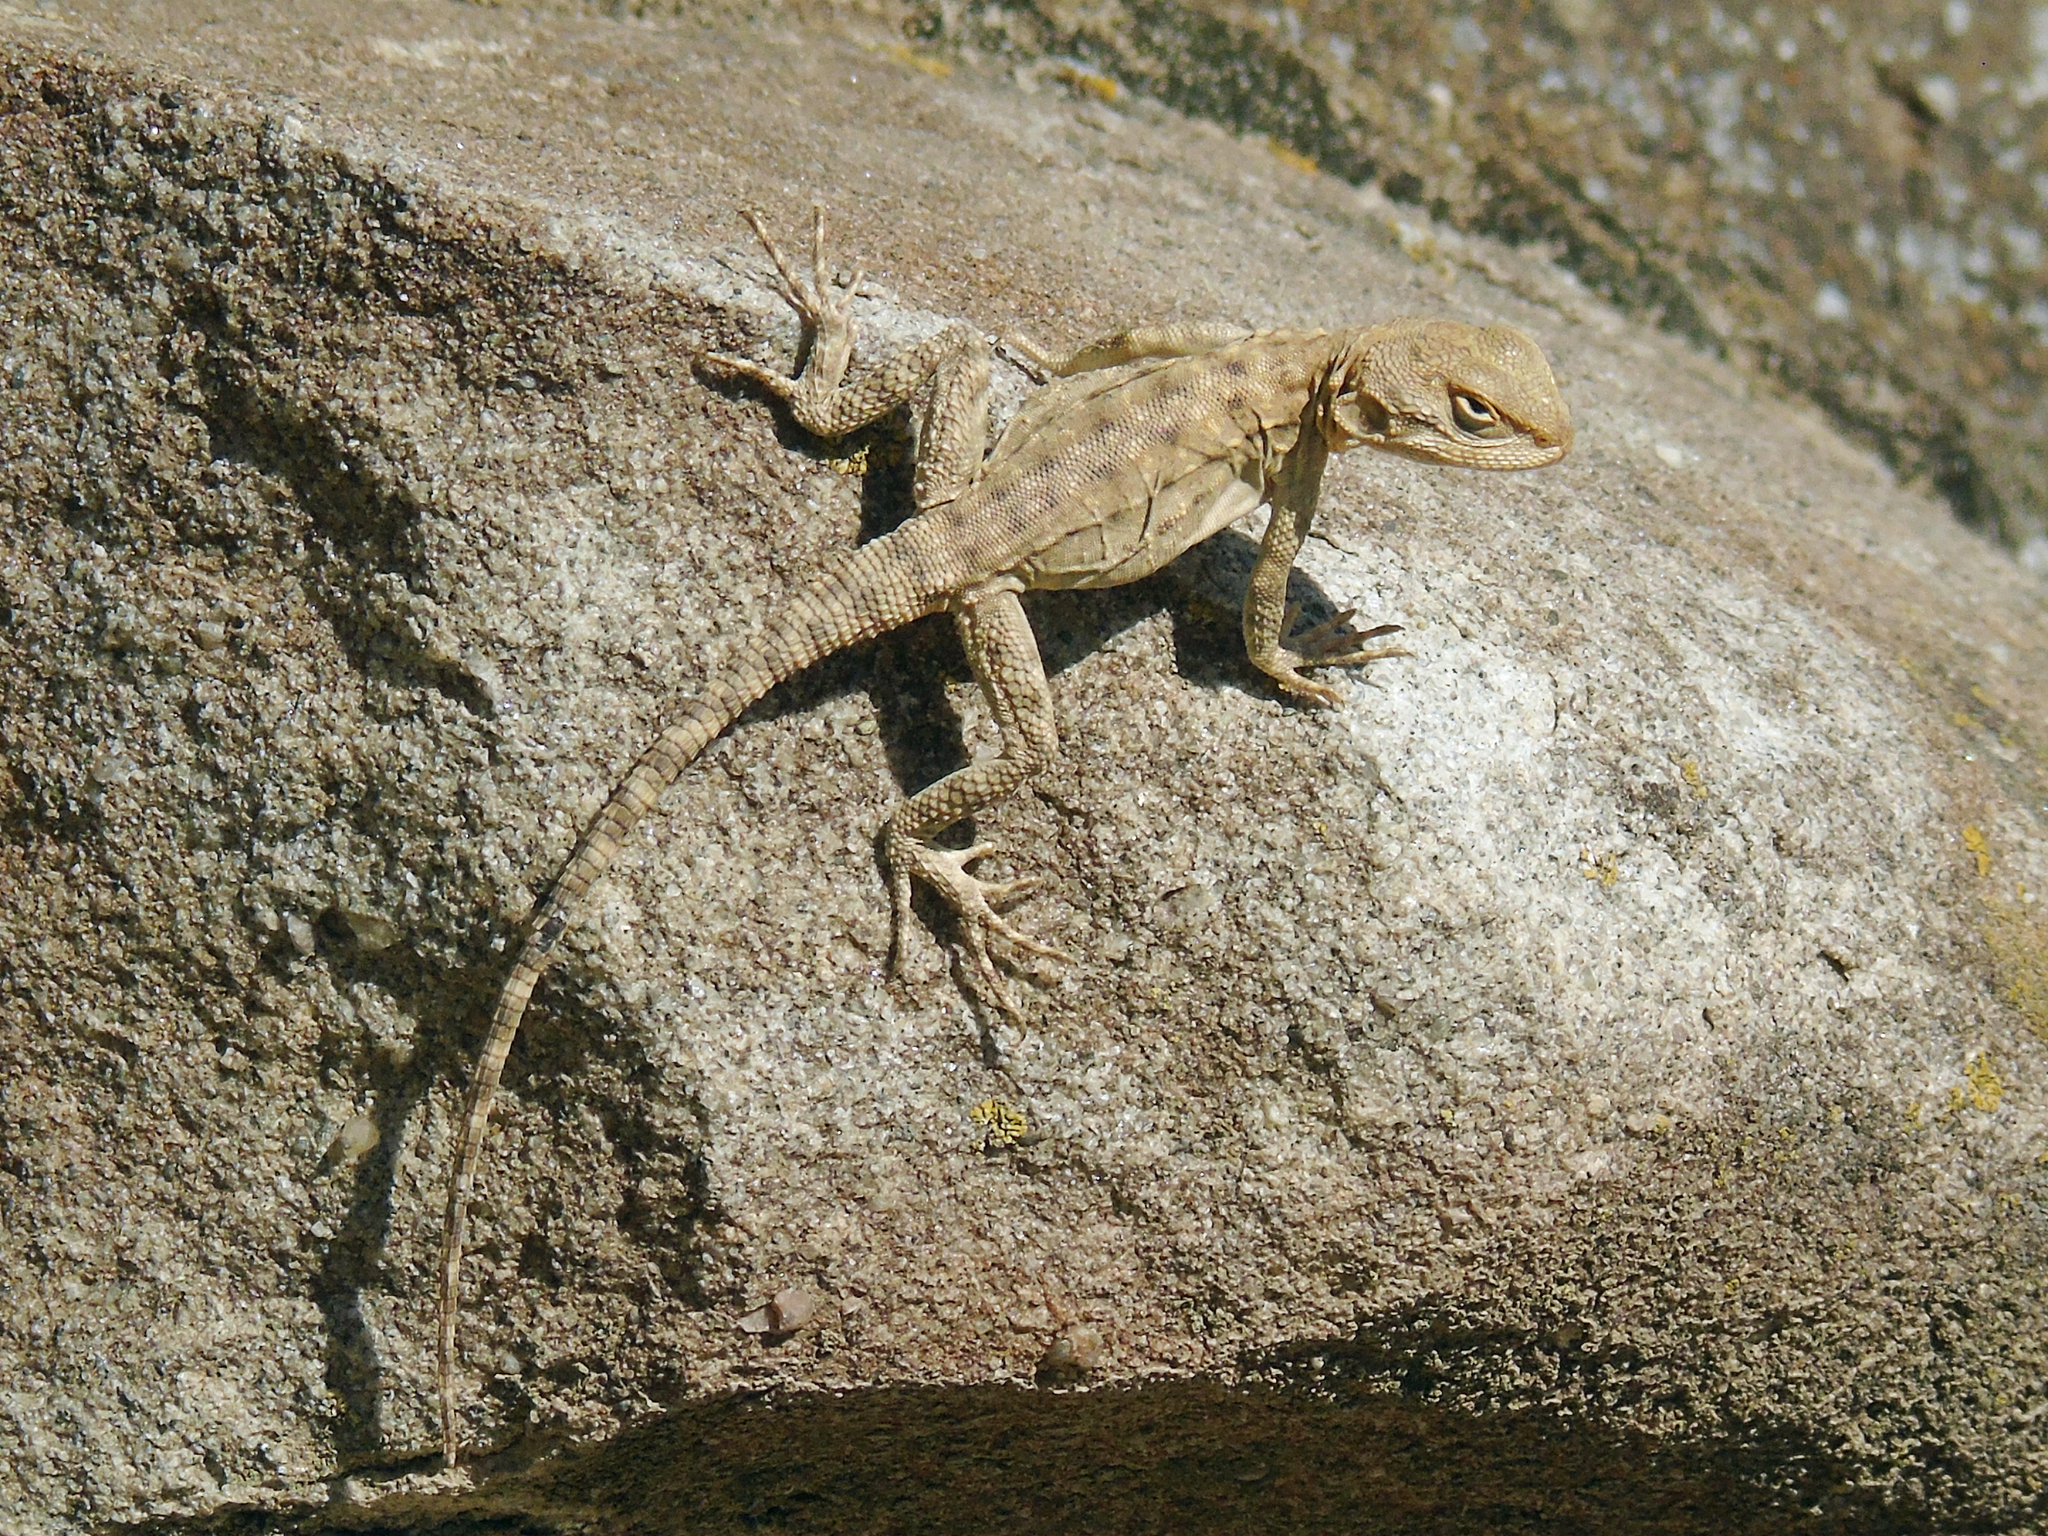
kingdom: Animalia
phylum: Chordata
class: Squamata
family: Agamidae
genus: Paralaudakia
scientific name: Paralaudakia caucasia
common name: Caucasian agama
